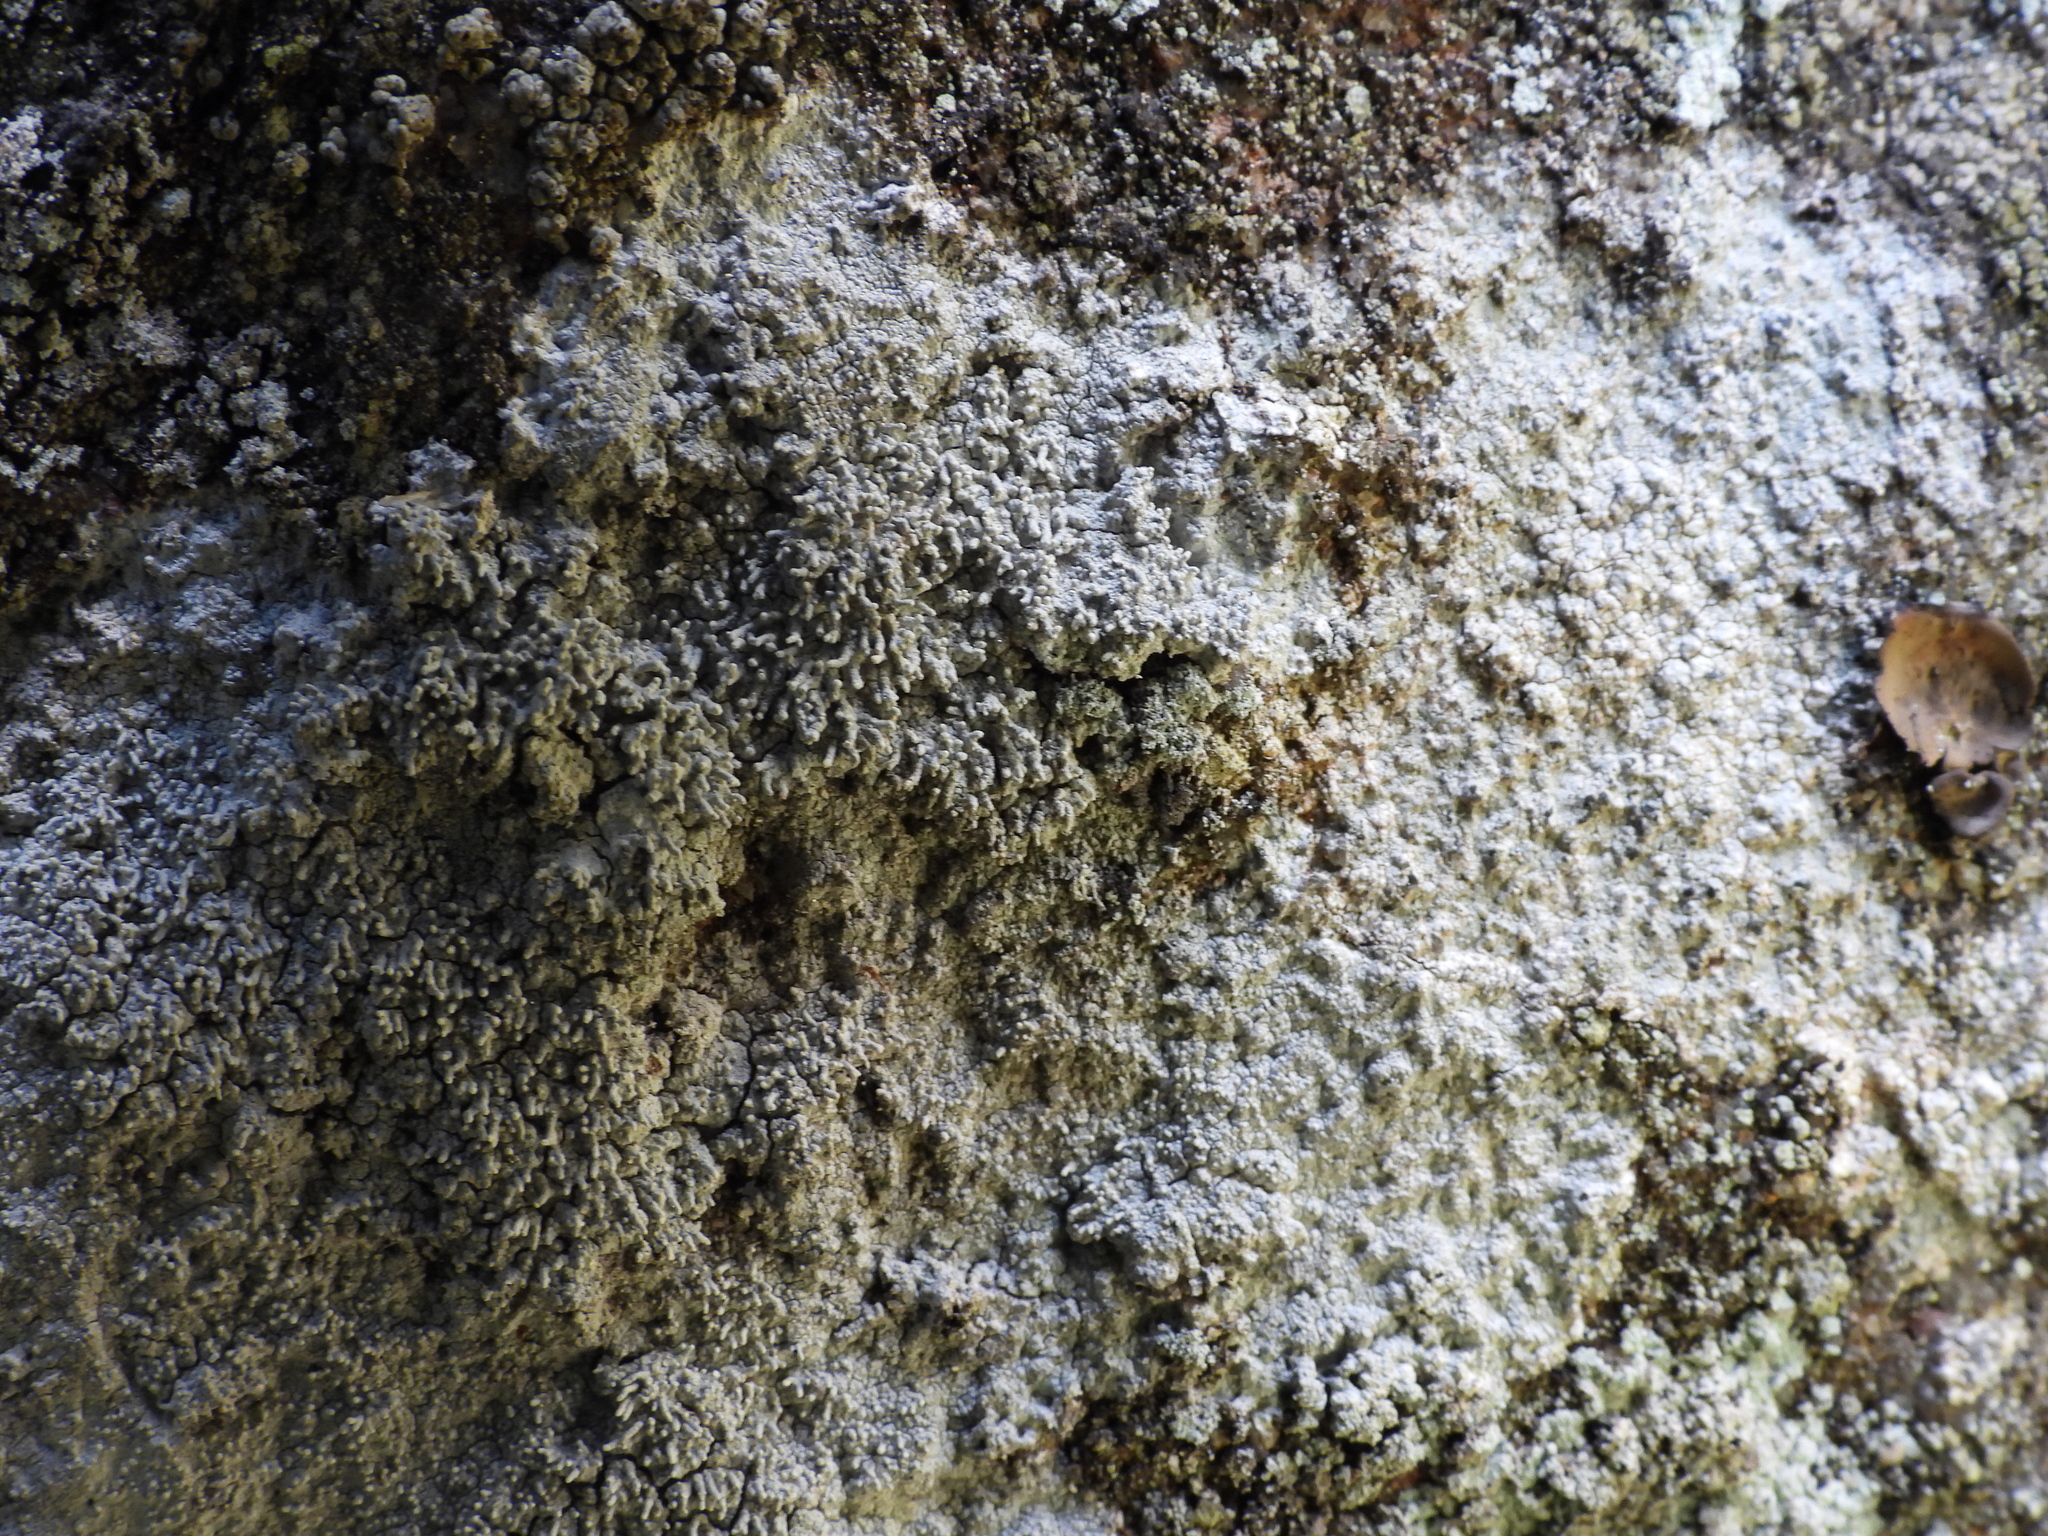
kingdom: Fungi
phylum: Ascomycota
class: Lecanoromycetes
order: Pertusariales
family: Pertusariaceae
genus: Lepra
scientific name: Lepra corallina
